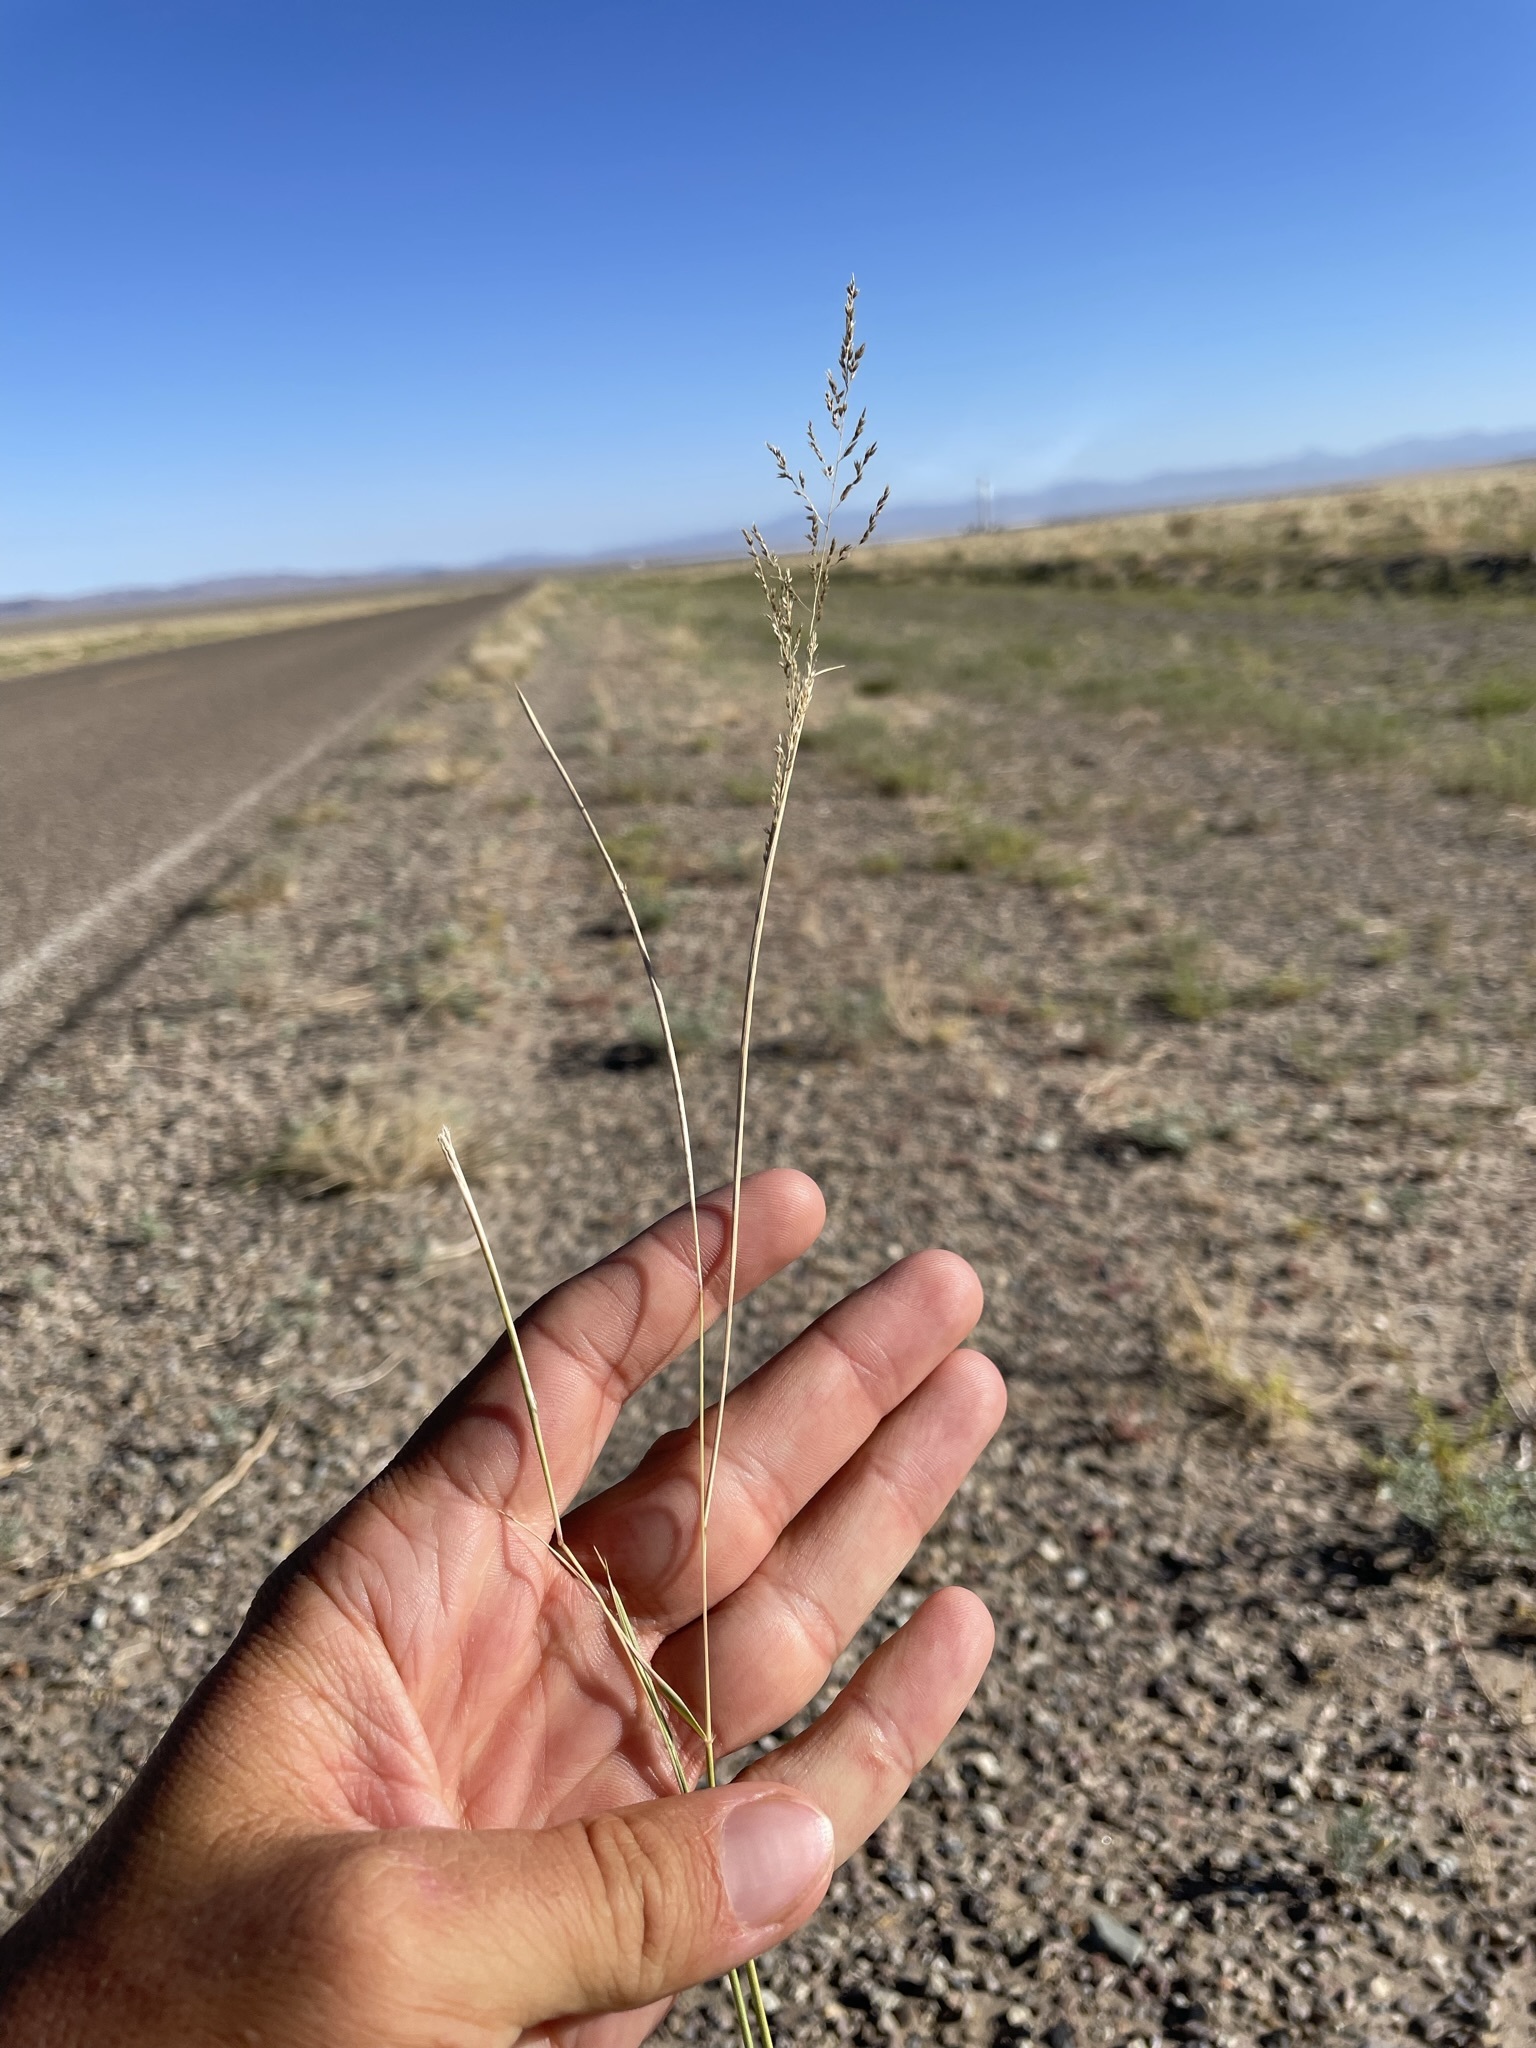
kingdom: Plantae
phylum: Tracheophyta
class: Liliopsida
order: Poales
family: Poaceae
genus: Sporobolus
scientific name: Sporobolus cryptandrus
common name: Sand dropseed
